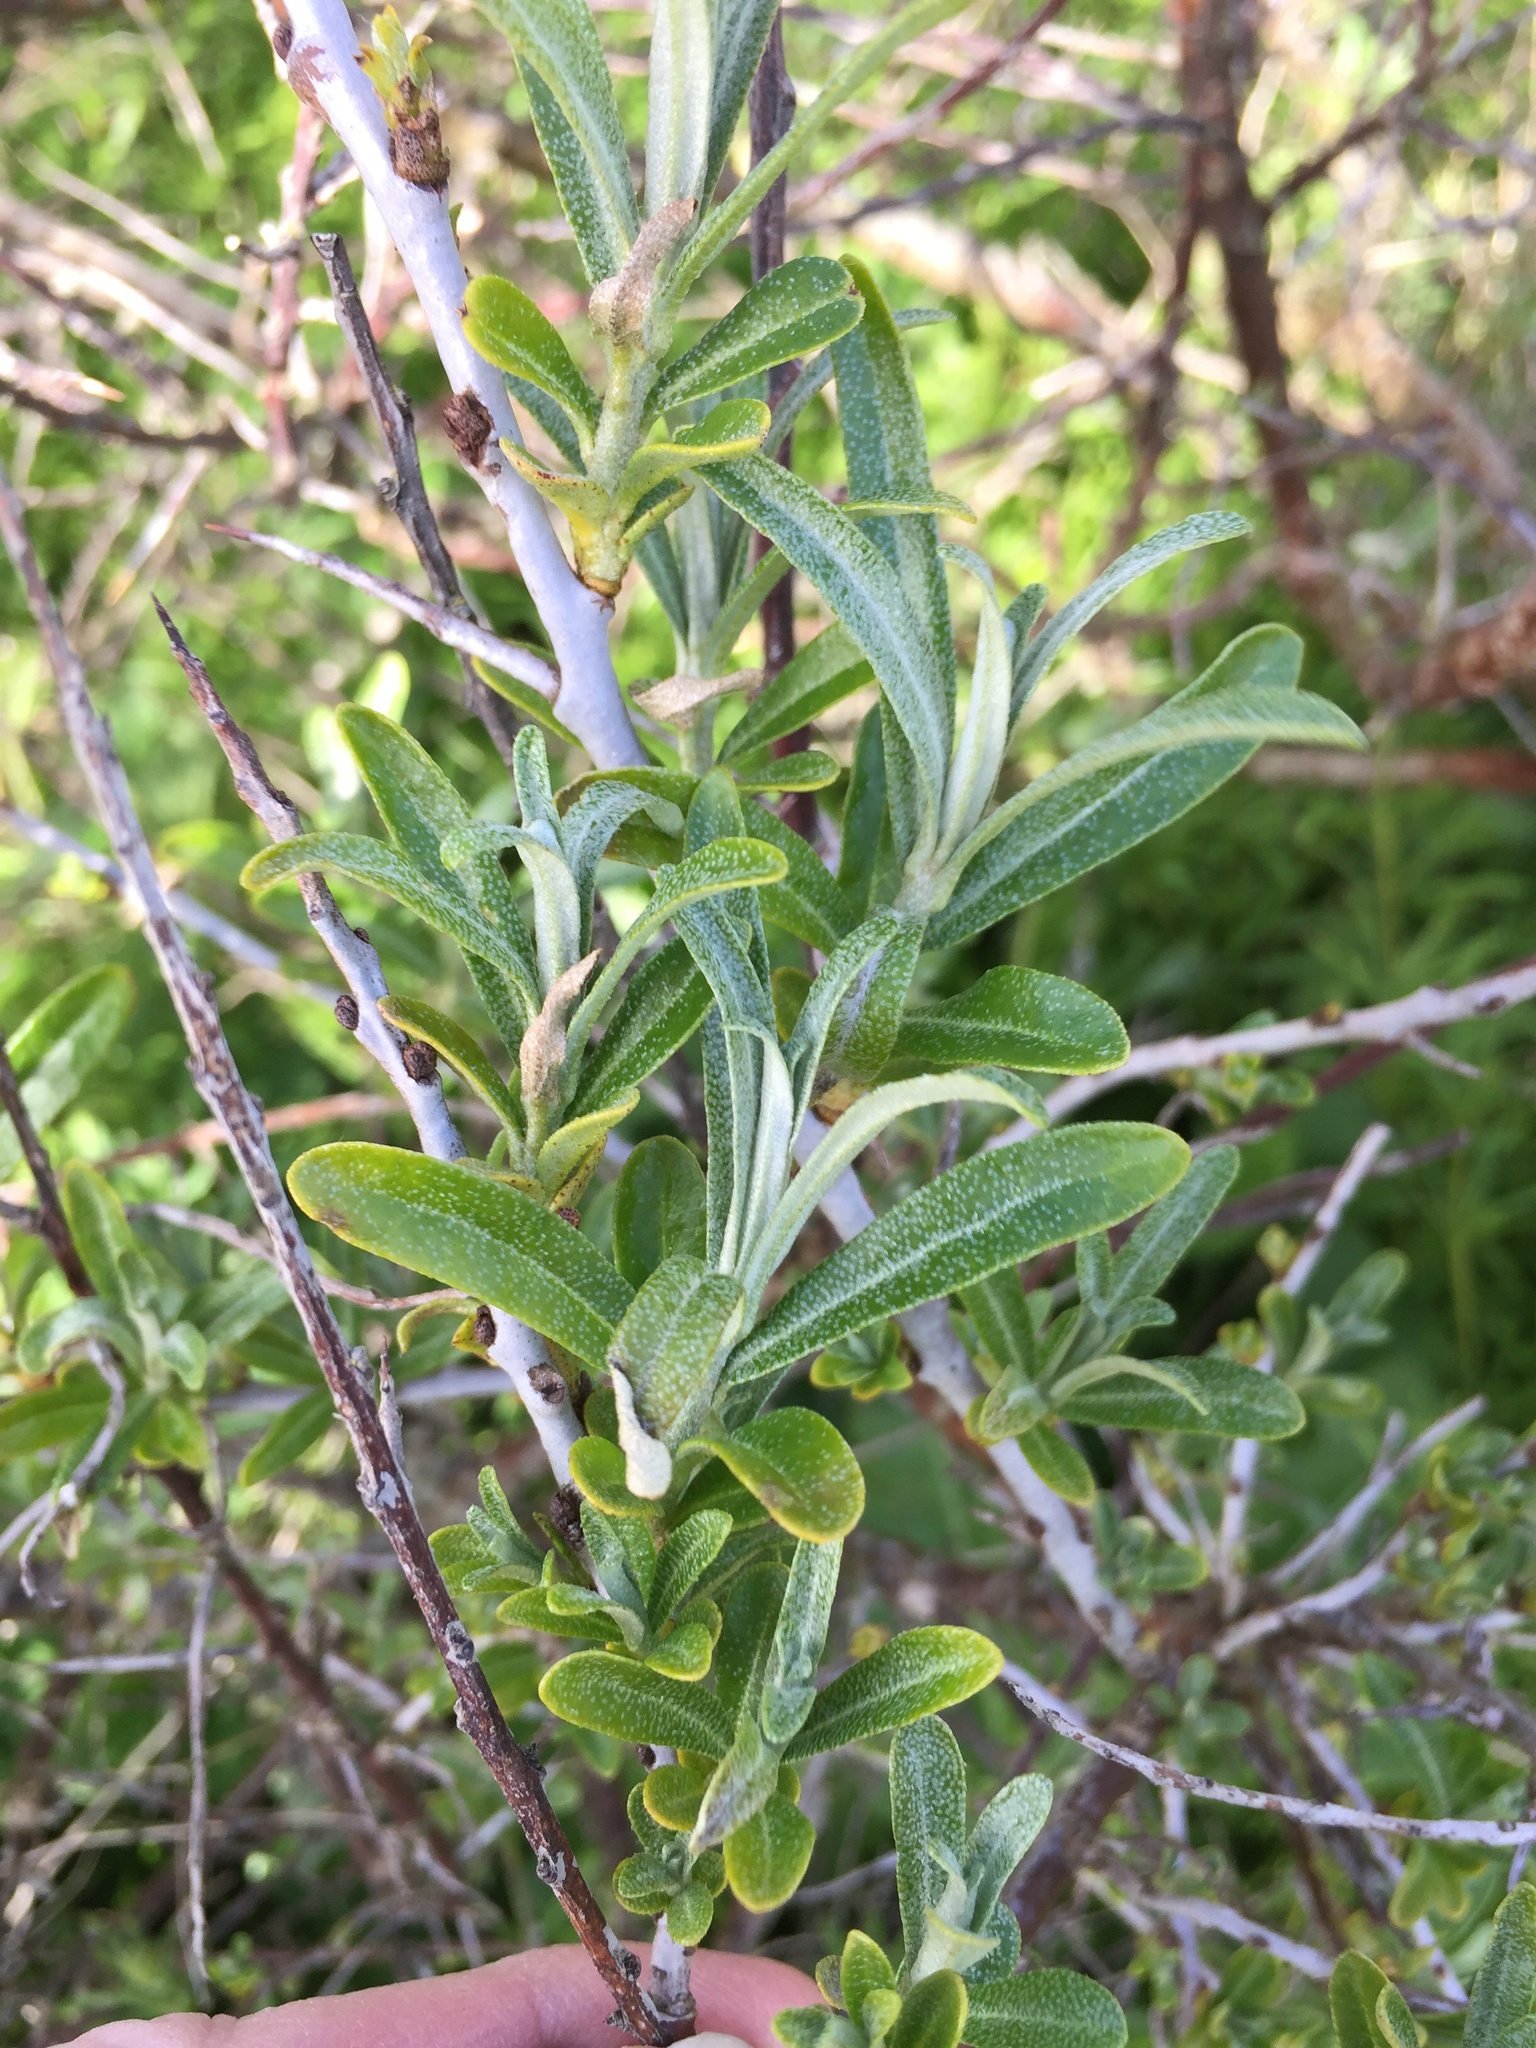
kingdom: Plantae
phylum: Tracheophyta
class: Magnoliopsida
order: Rosales
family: Elaeagnaceae
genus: Hippophae
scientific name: Hippophae rhamnoides
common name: Sea-buckthorn
